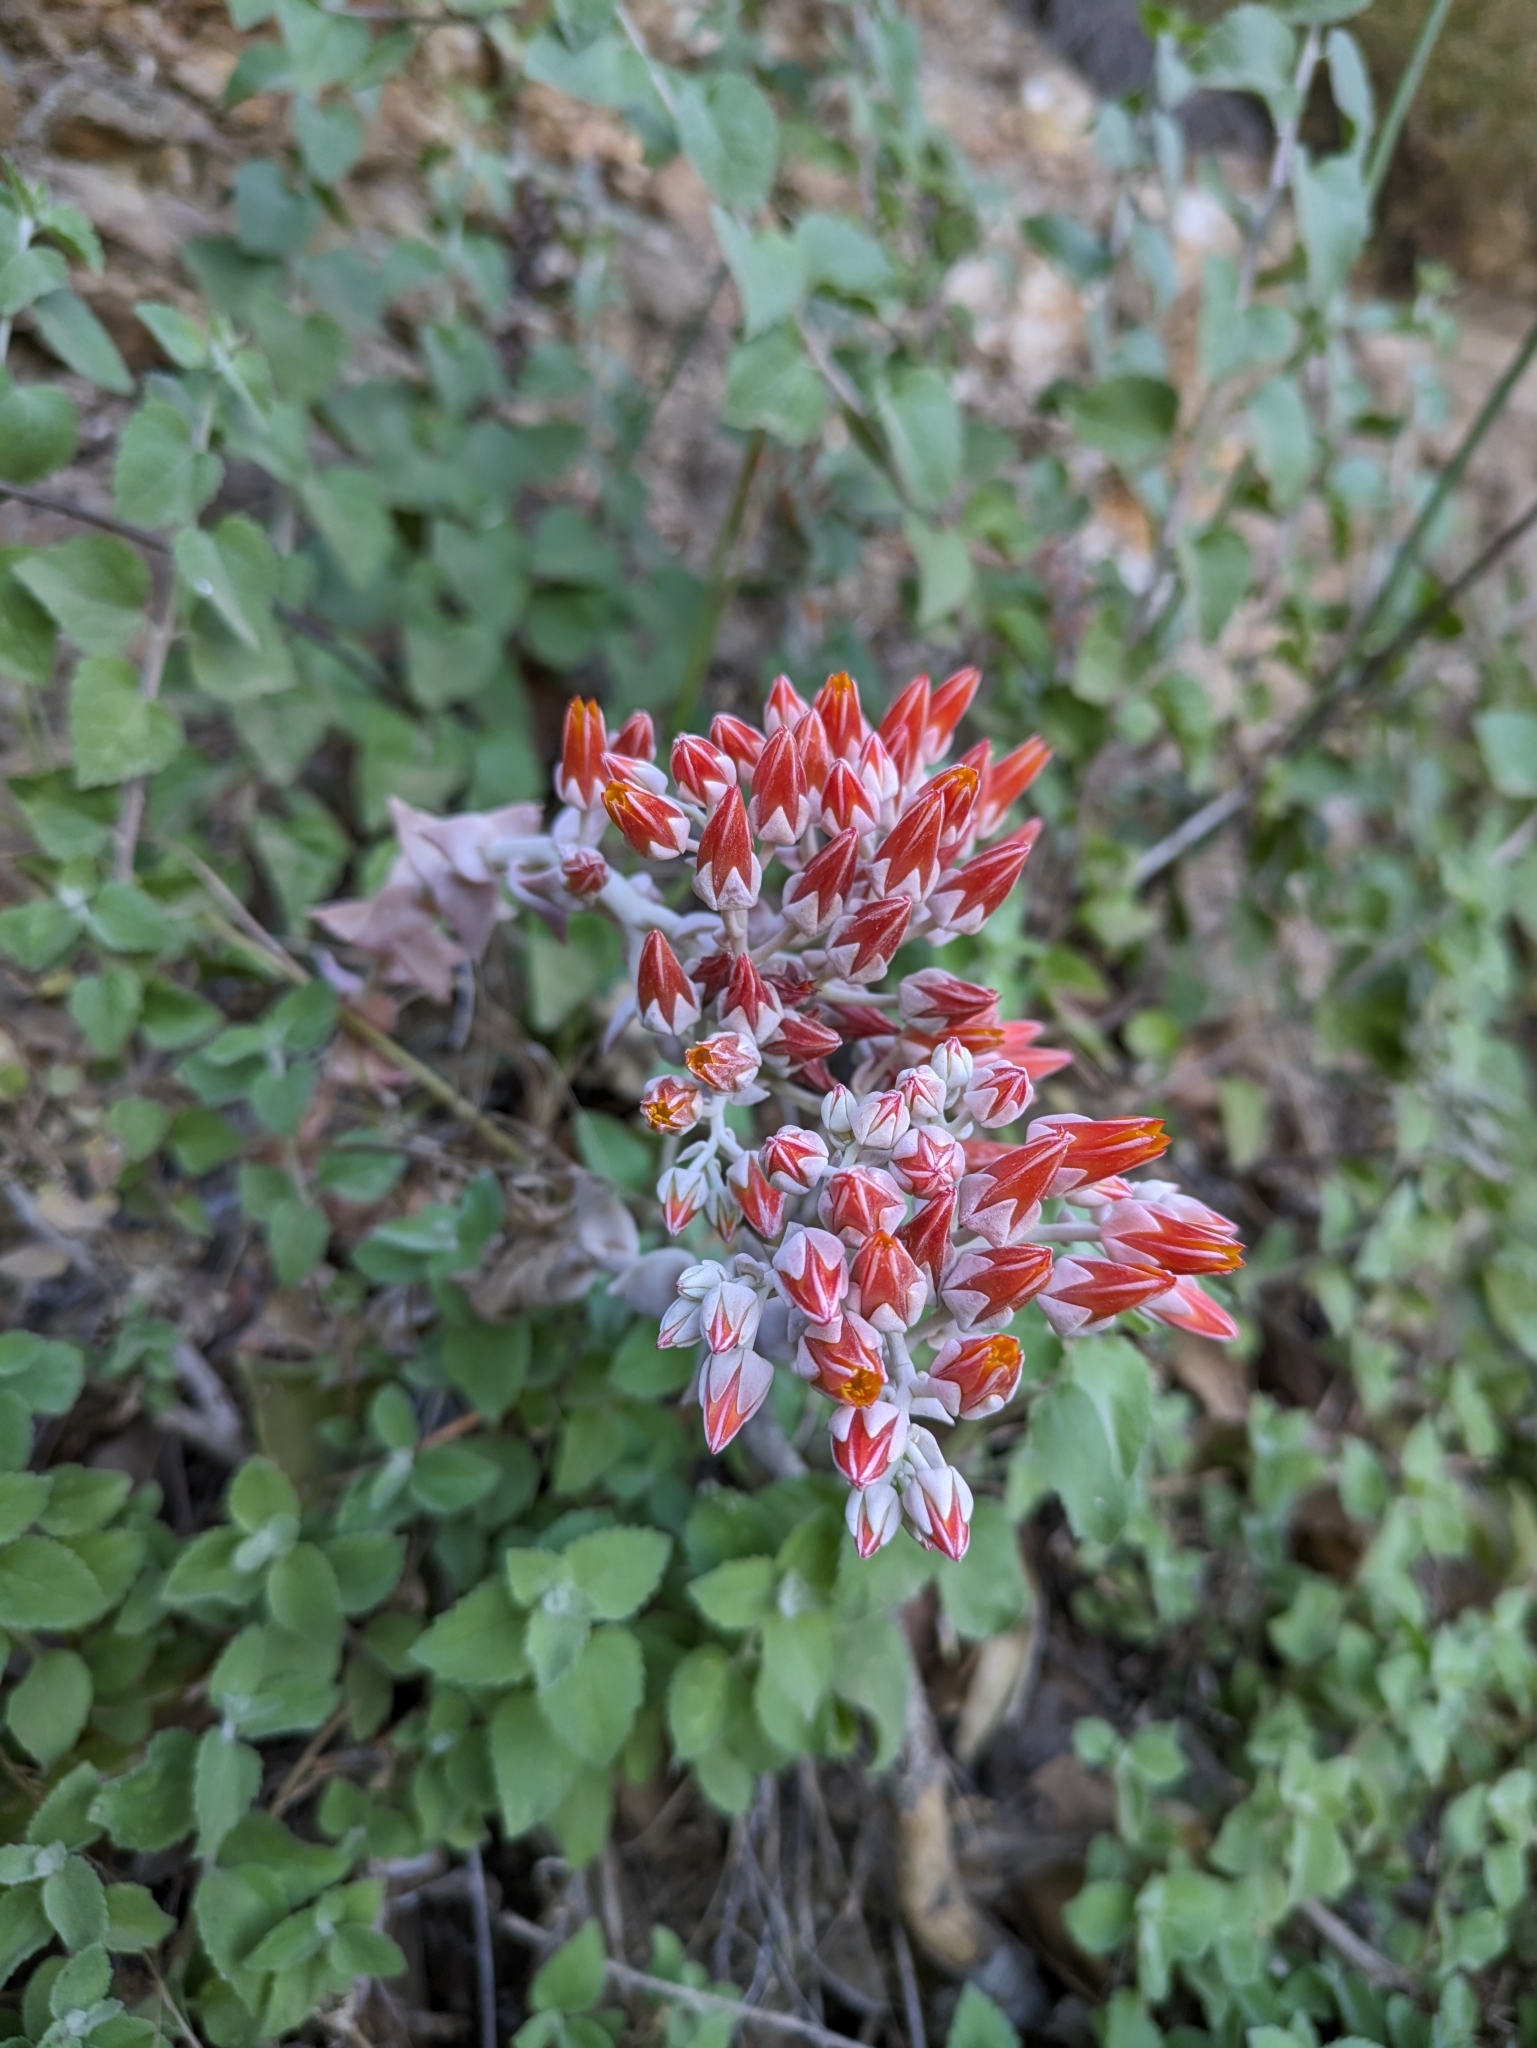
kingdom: Plantae
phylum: Tracheophyta
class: Magnoliopsida
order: Saxifragales
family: Crassulaceae
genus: Dudleya
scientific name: Dudleya cymosa
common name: Canyon dudleya
